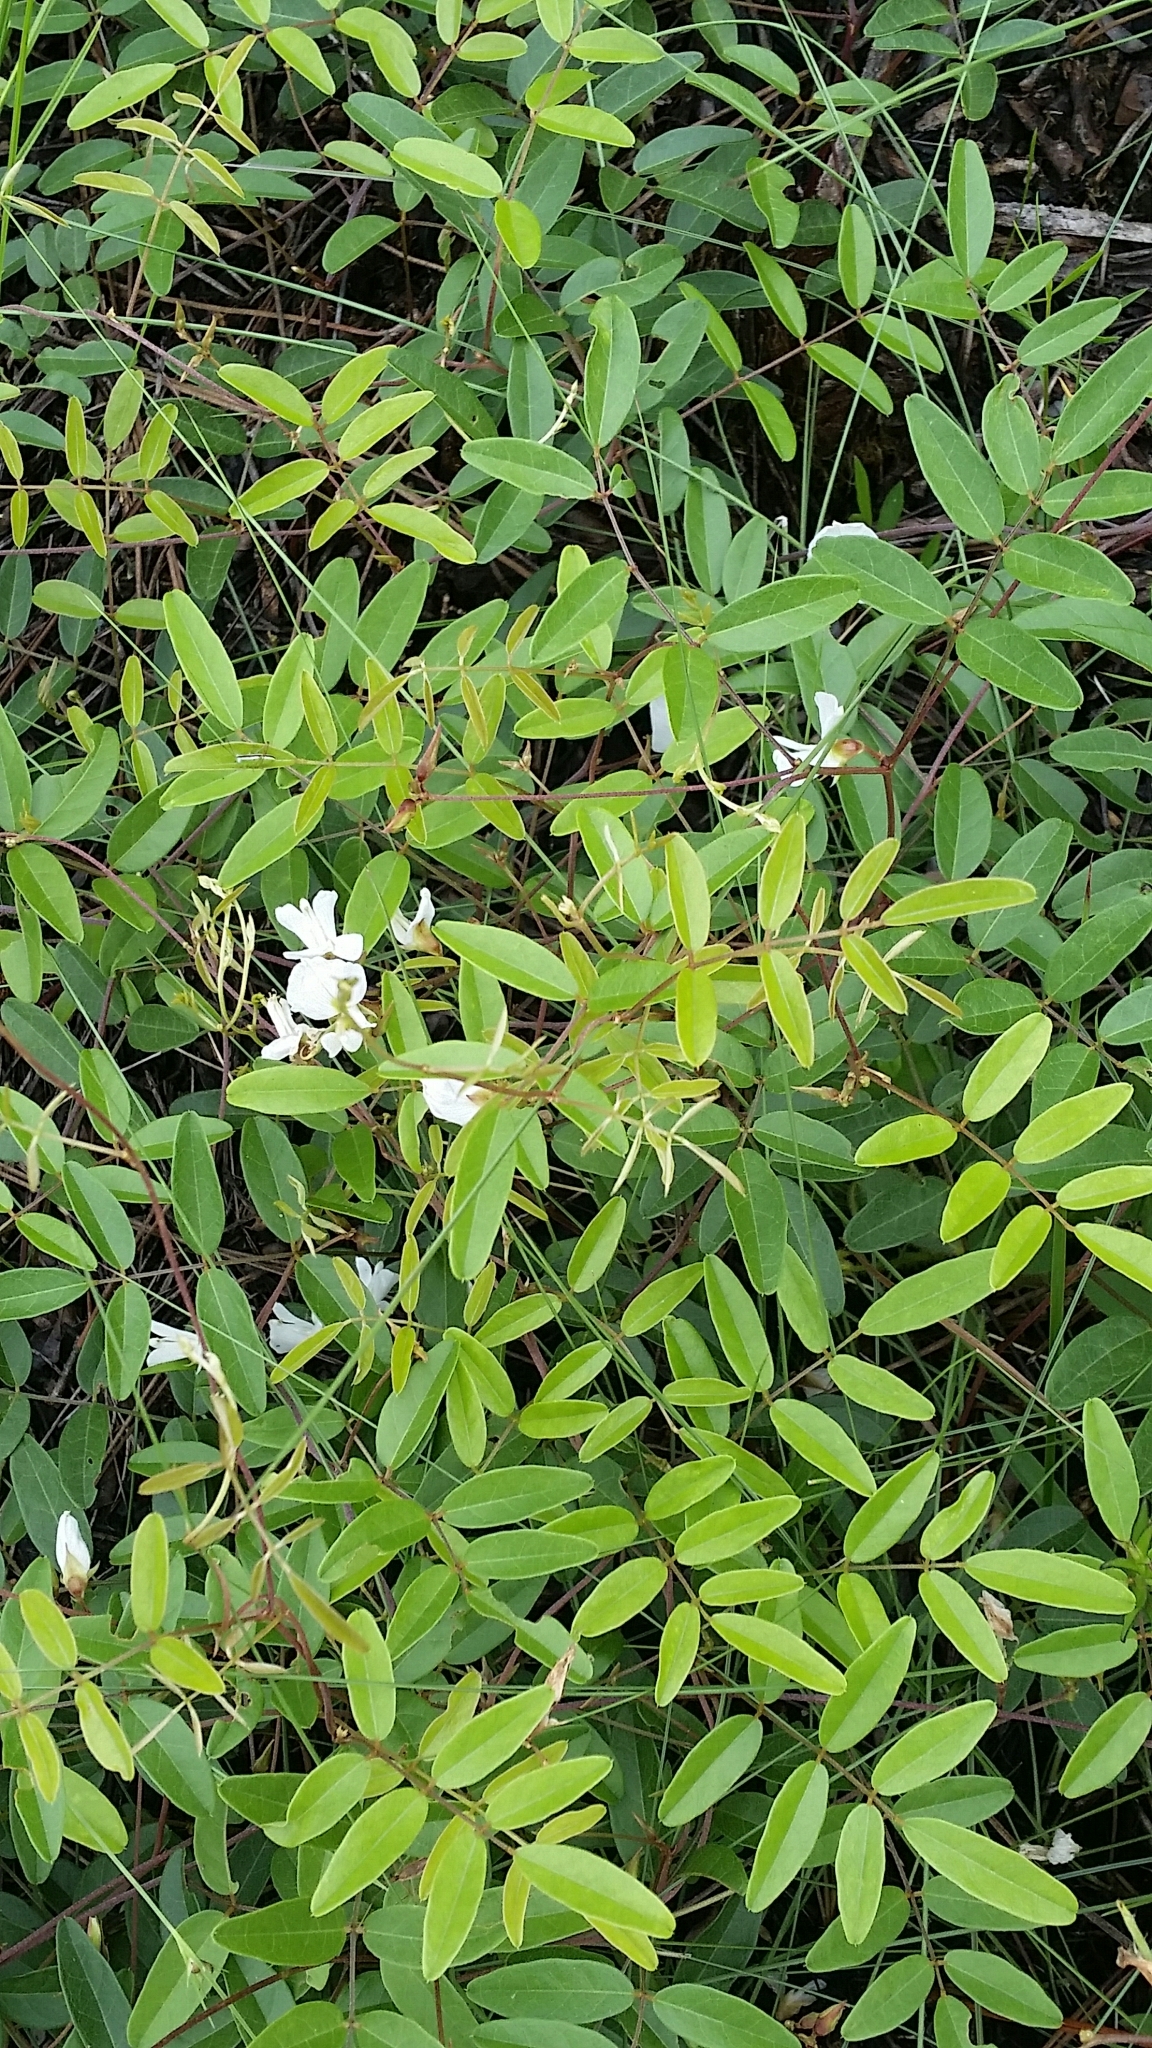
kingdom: Plantae
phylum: Tracheophyta
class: Magnoliopsida
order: Fabales
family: Fabaceae
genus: Galactia
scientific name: Galactia elliottii
